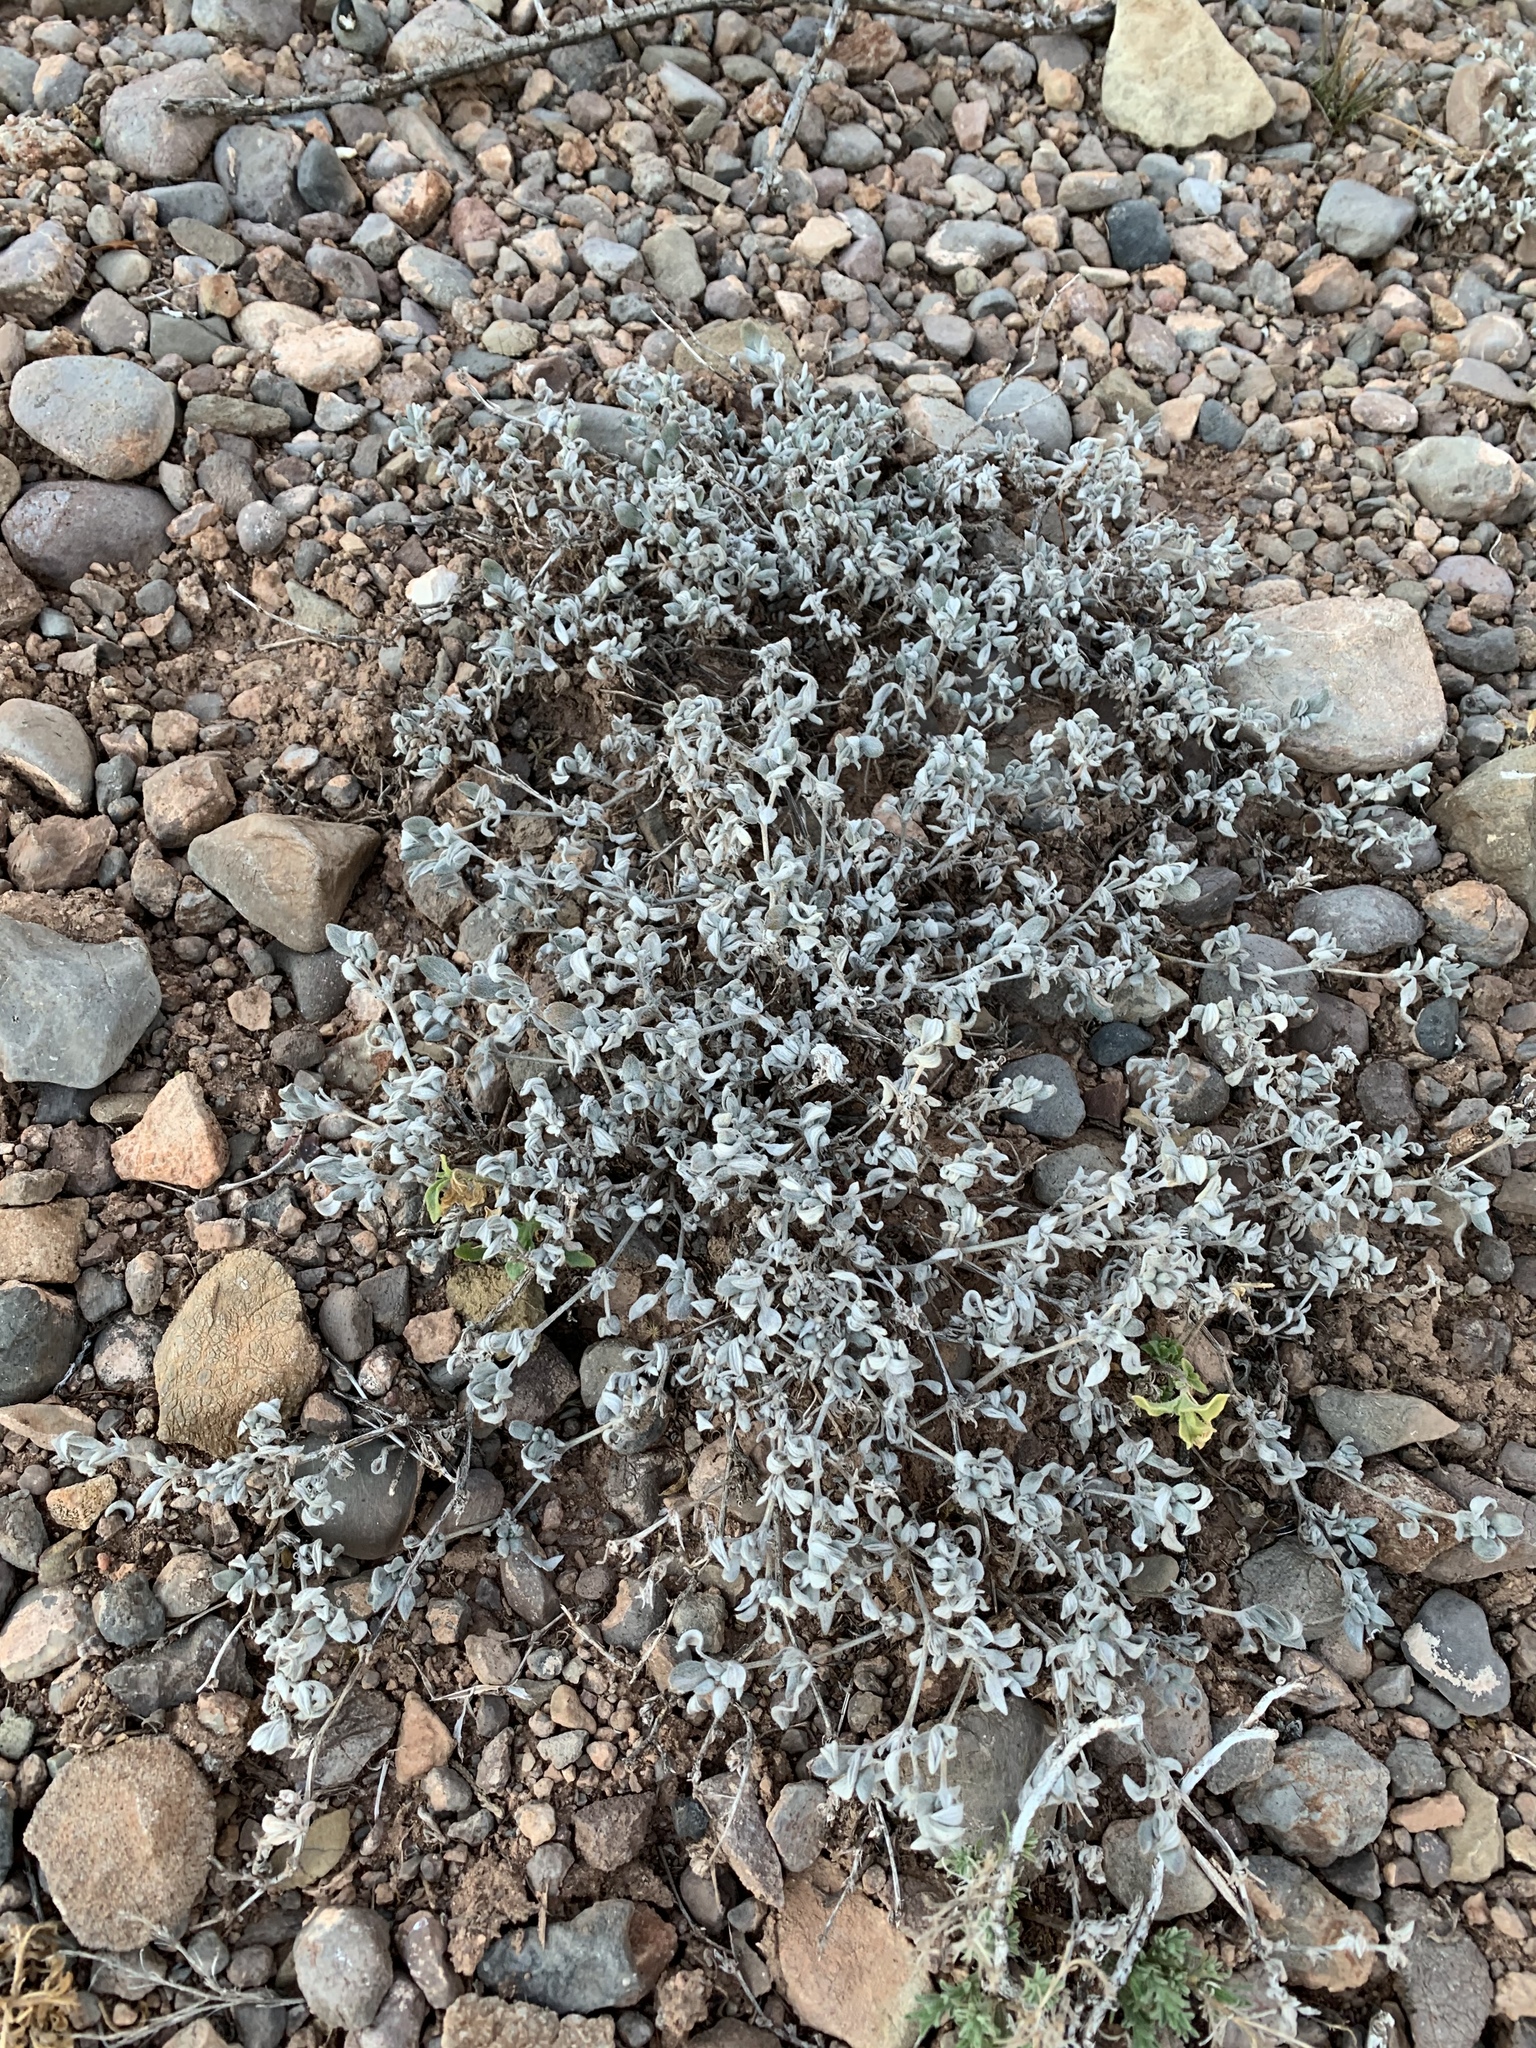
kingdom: Plantae
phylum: Tracheophyta
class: Magnoliopsida
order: Boraginales
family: Ehretiaceae
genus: Tiquilia
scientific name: Tiquilia canescens
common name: Hairy tiquilia
